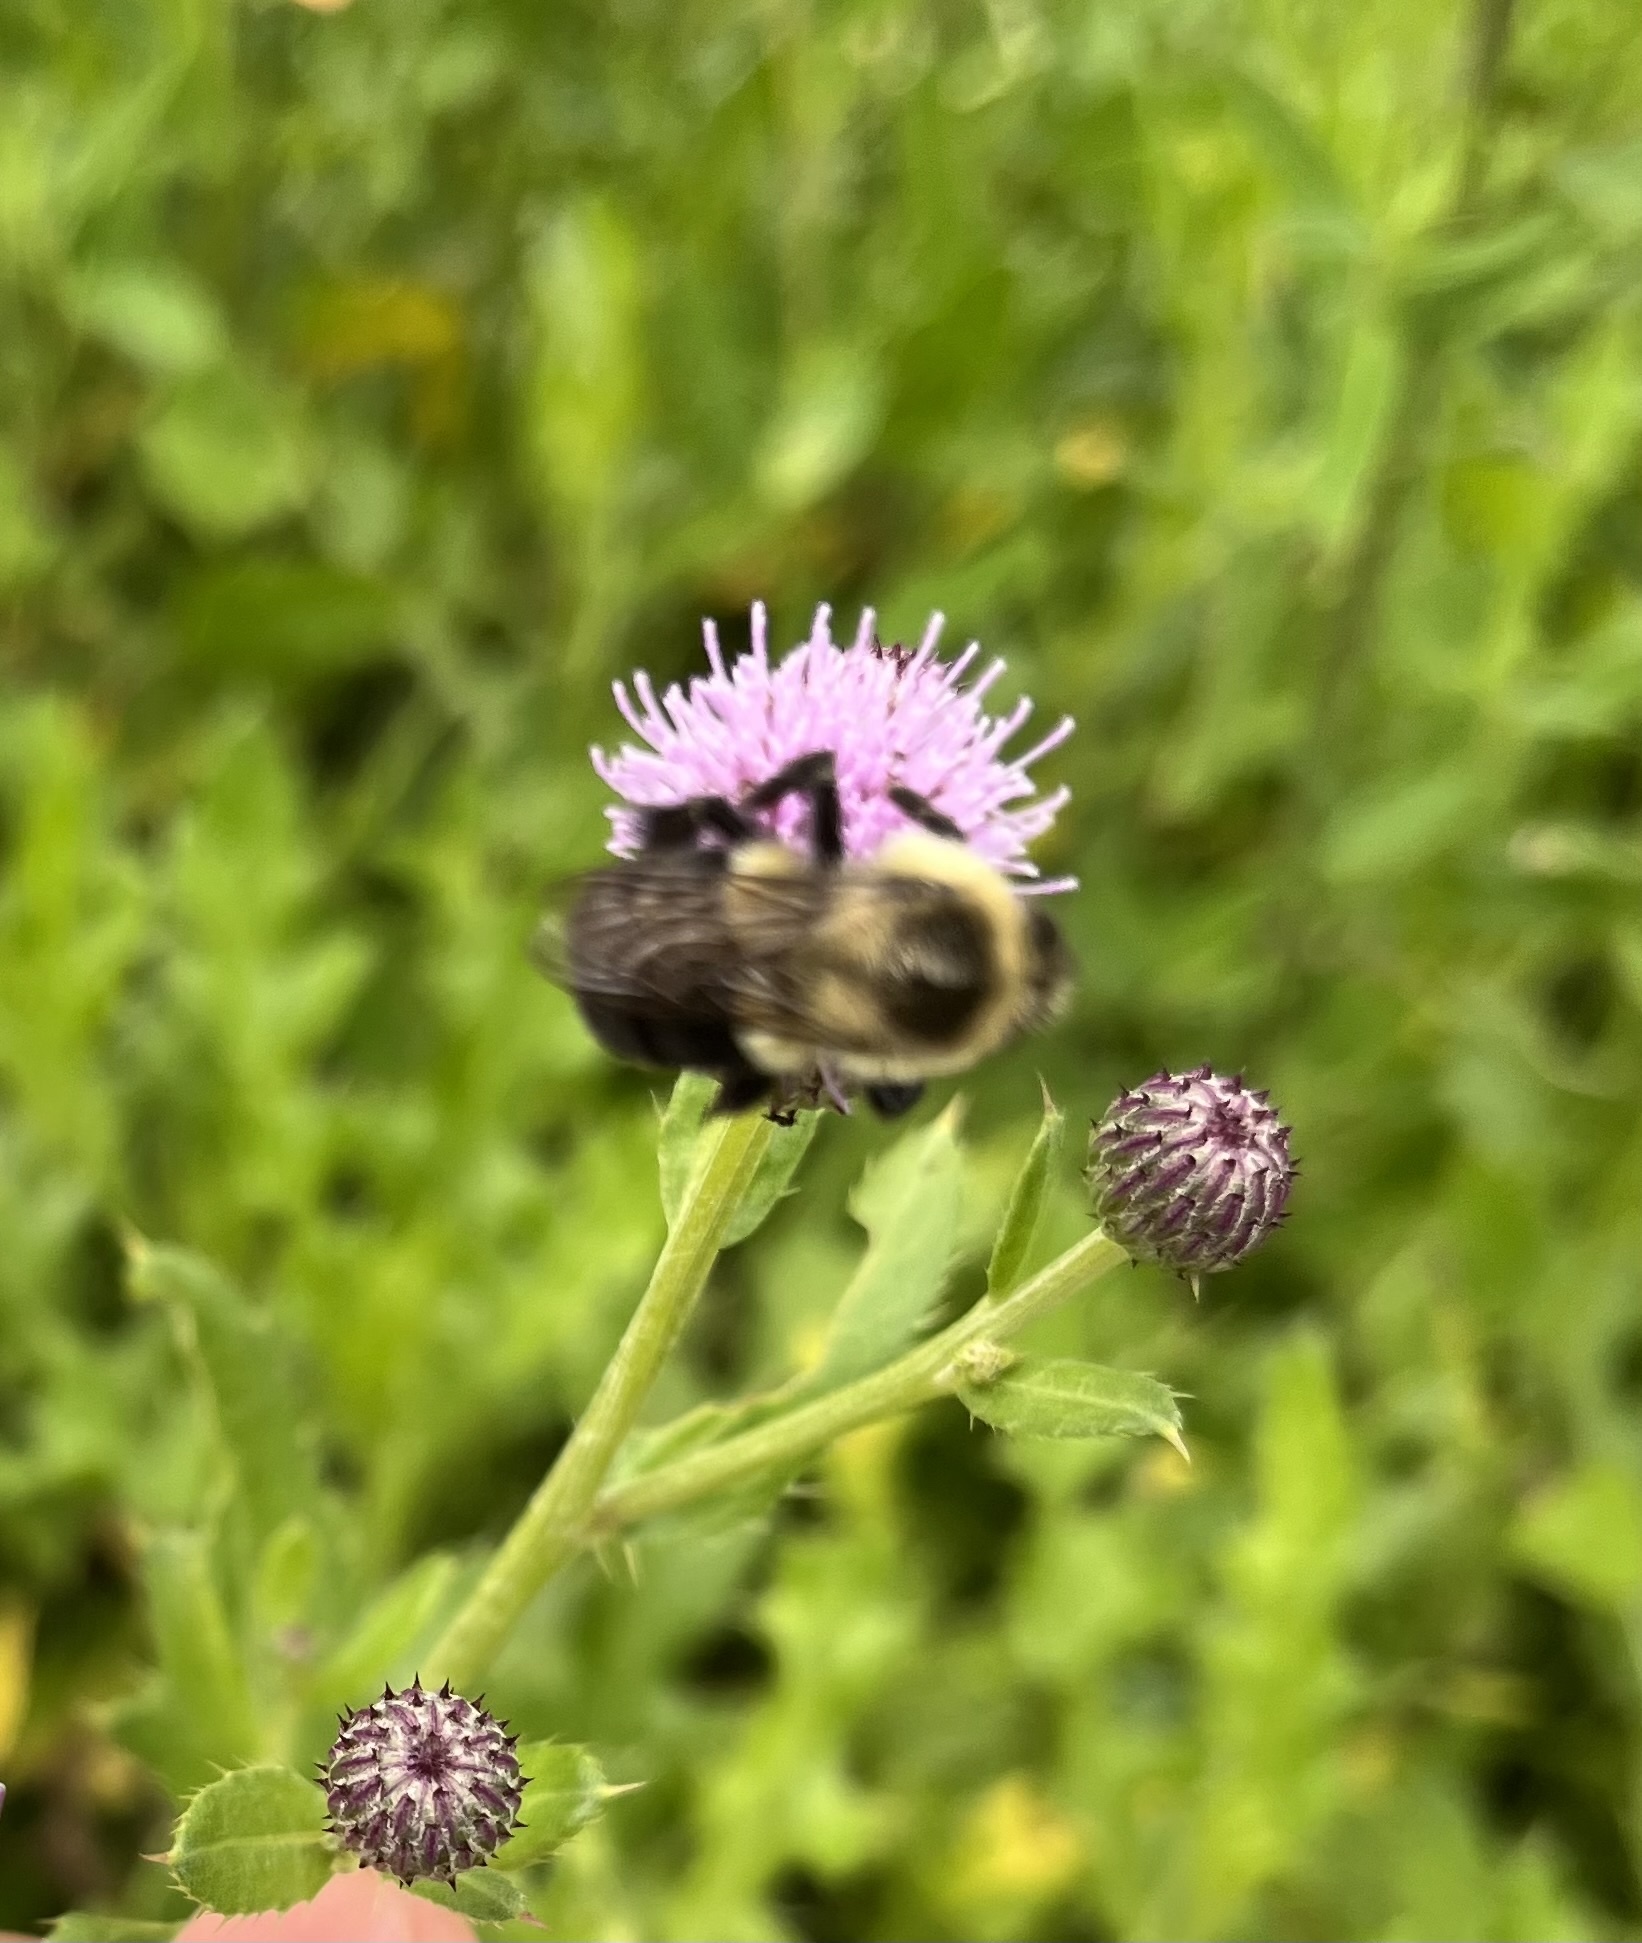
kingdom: Animalia
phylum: Arthropoda
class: Insecta
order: Hymenoptera
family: Apidae
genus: Bombus
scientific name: Bombus impatiens
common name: Common eastern bumble bee
